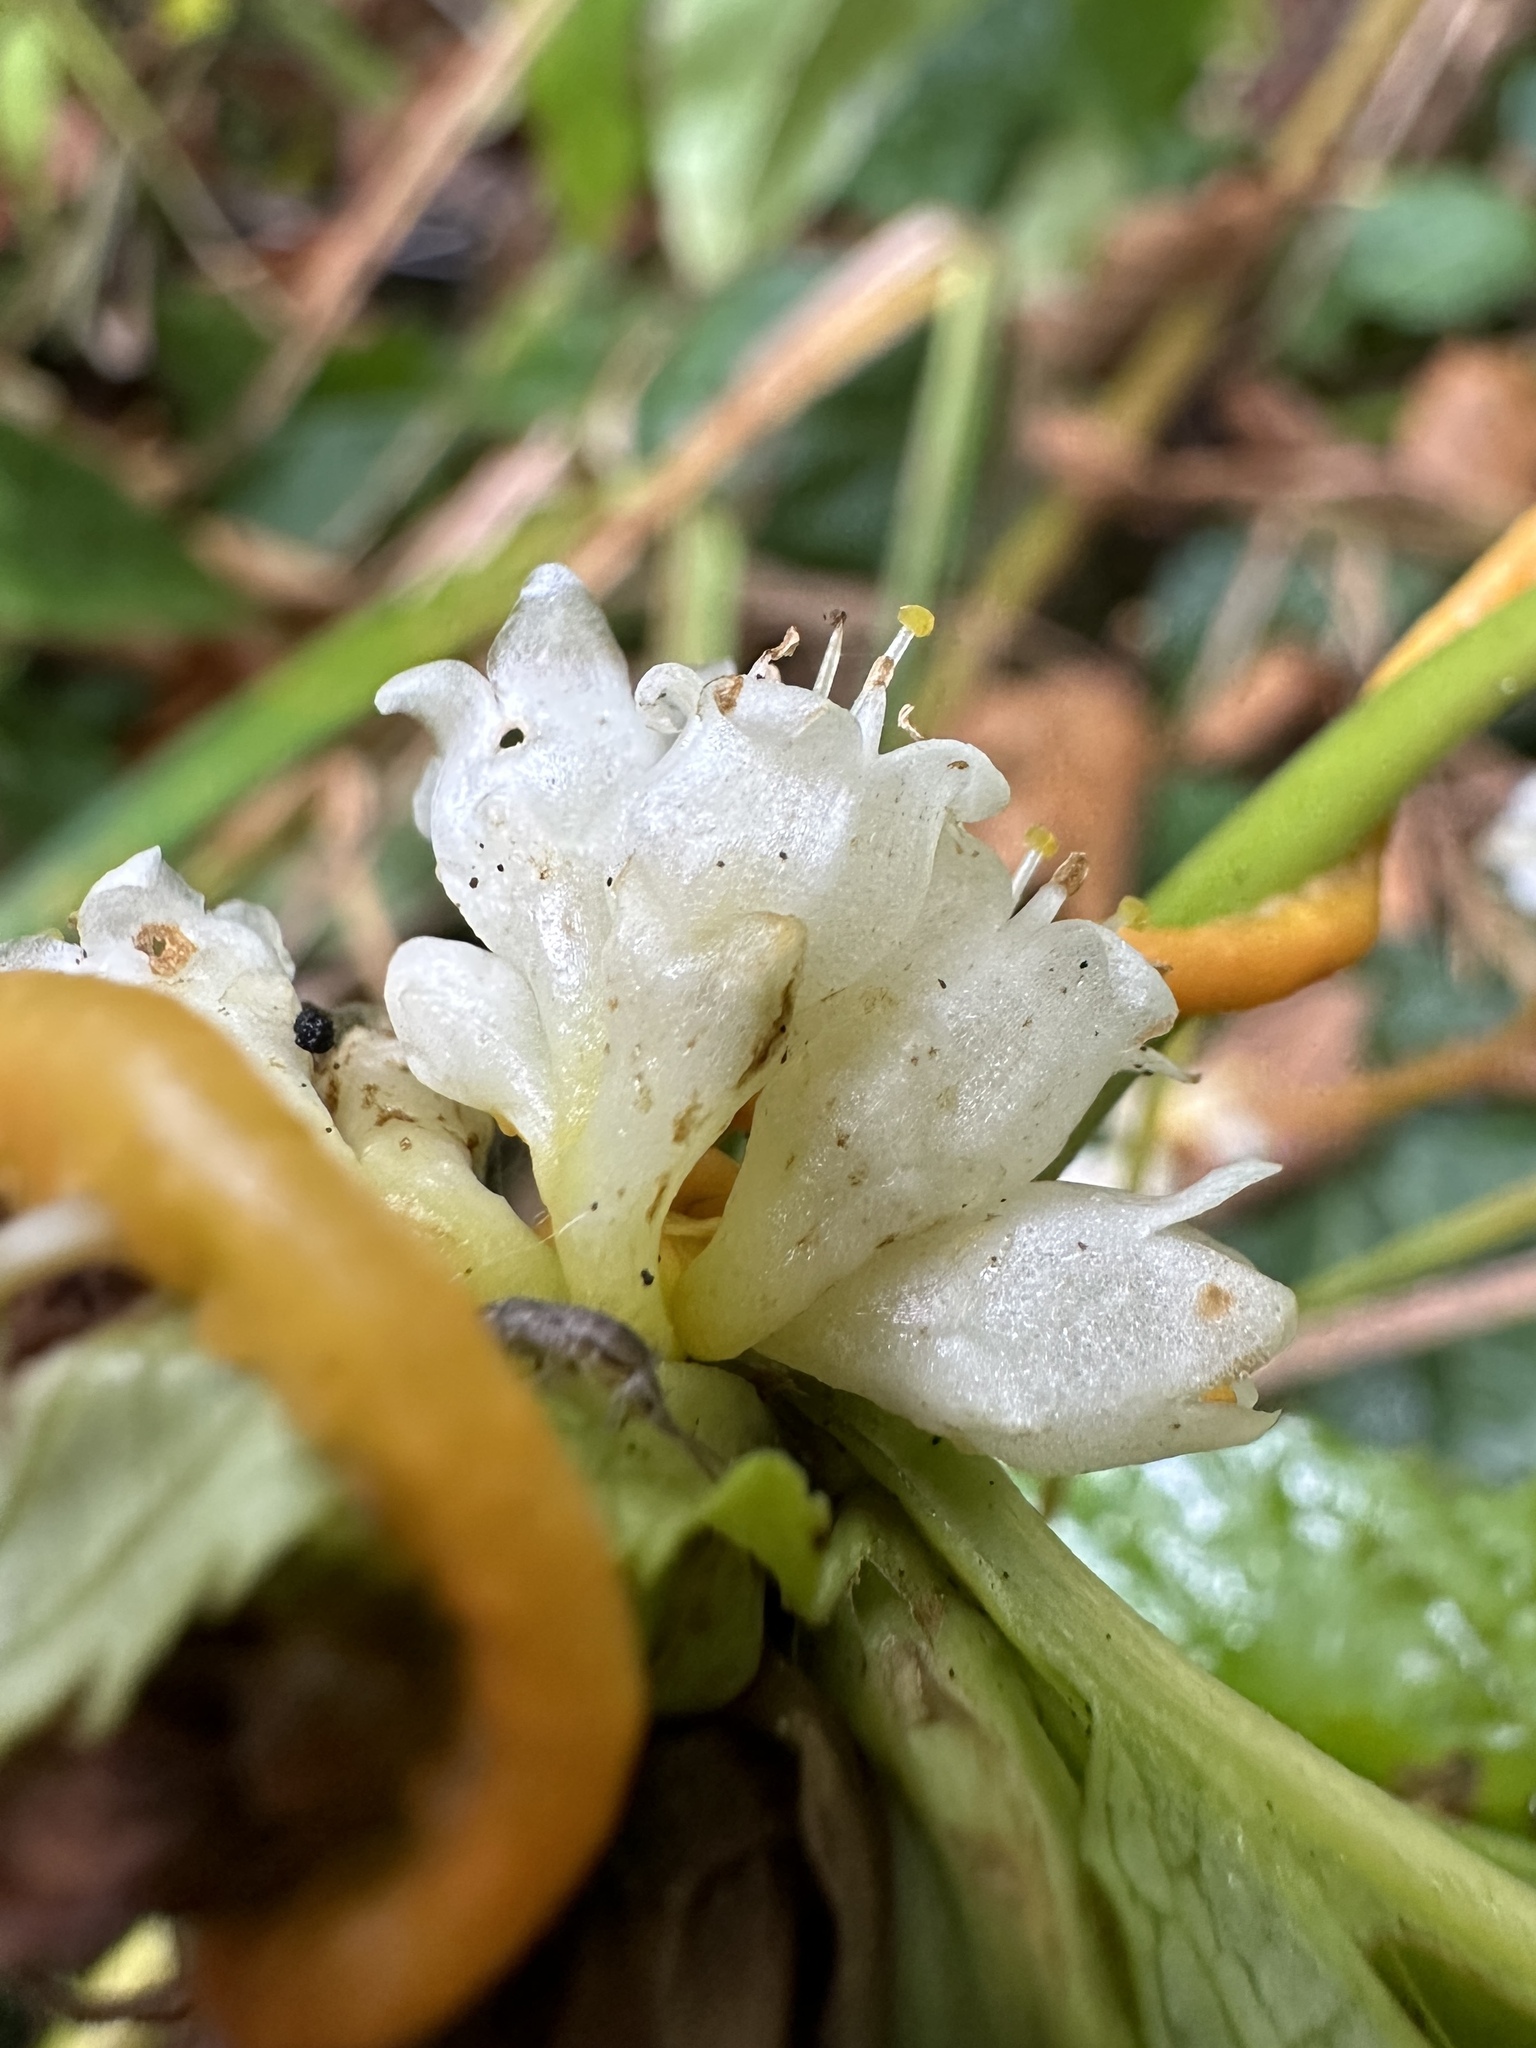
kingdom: Plantae
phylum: Tracheophyta
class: Magnoliopsida
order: Solanales
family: Convolvulaceae
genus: Cuscuta
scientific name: Cuscuta rostrata
